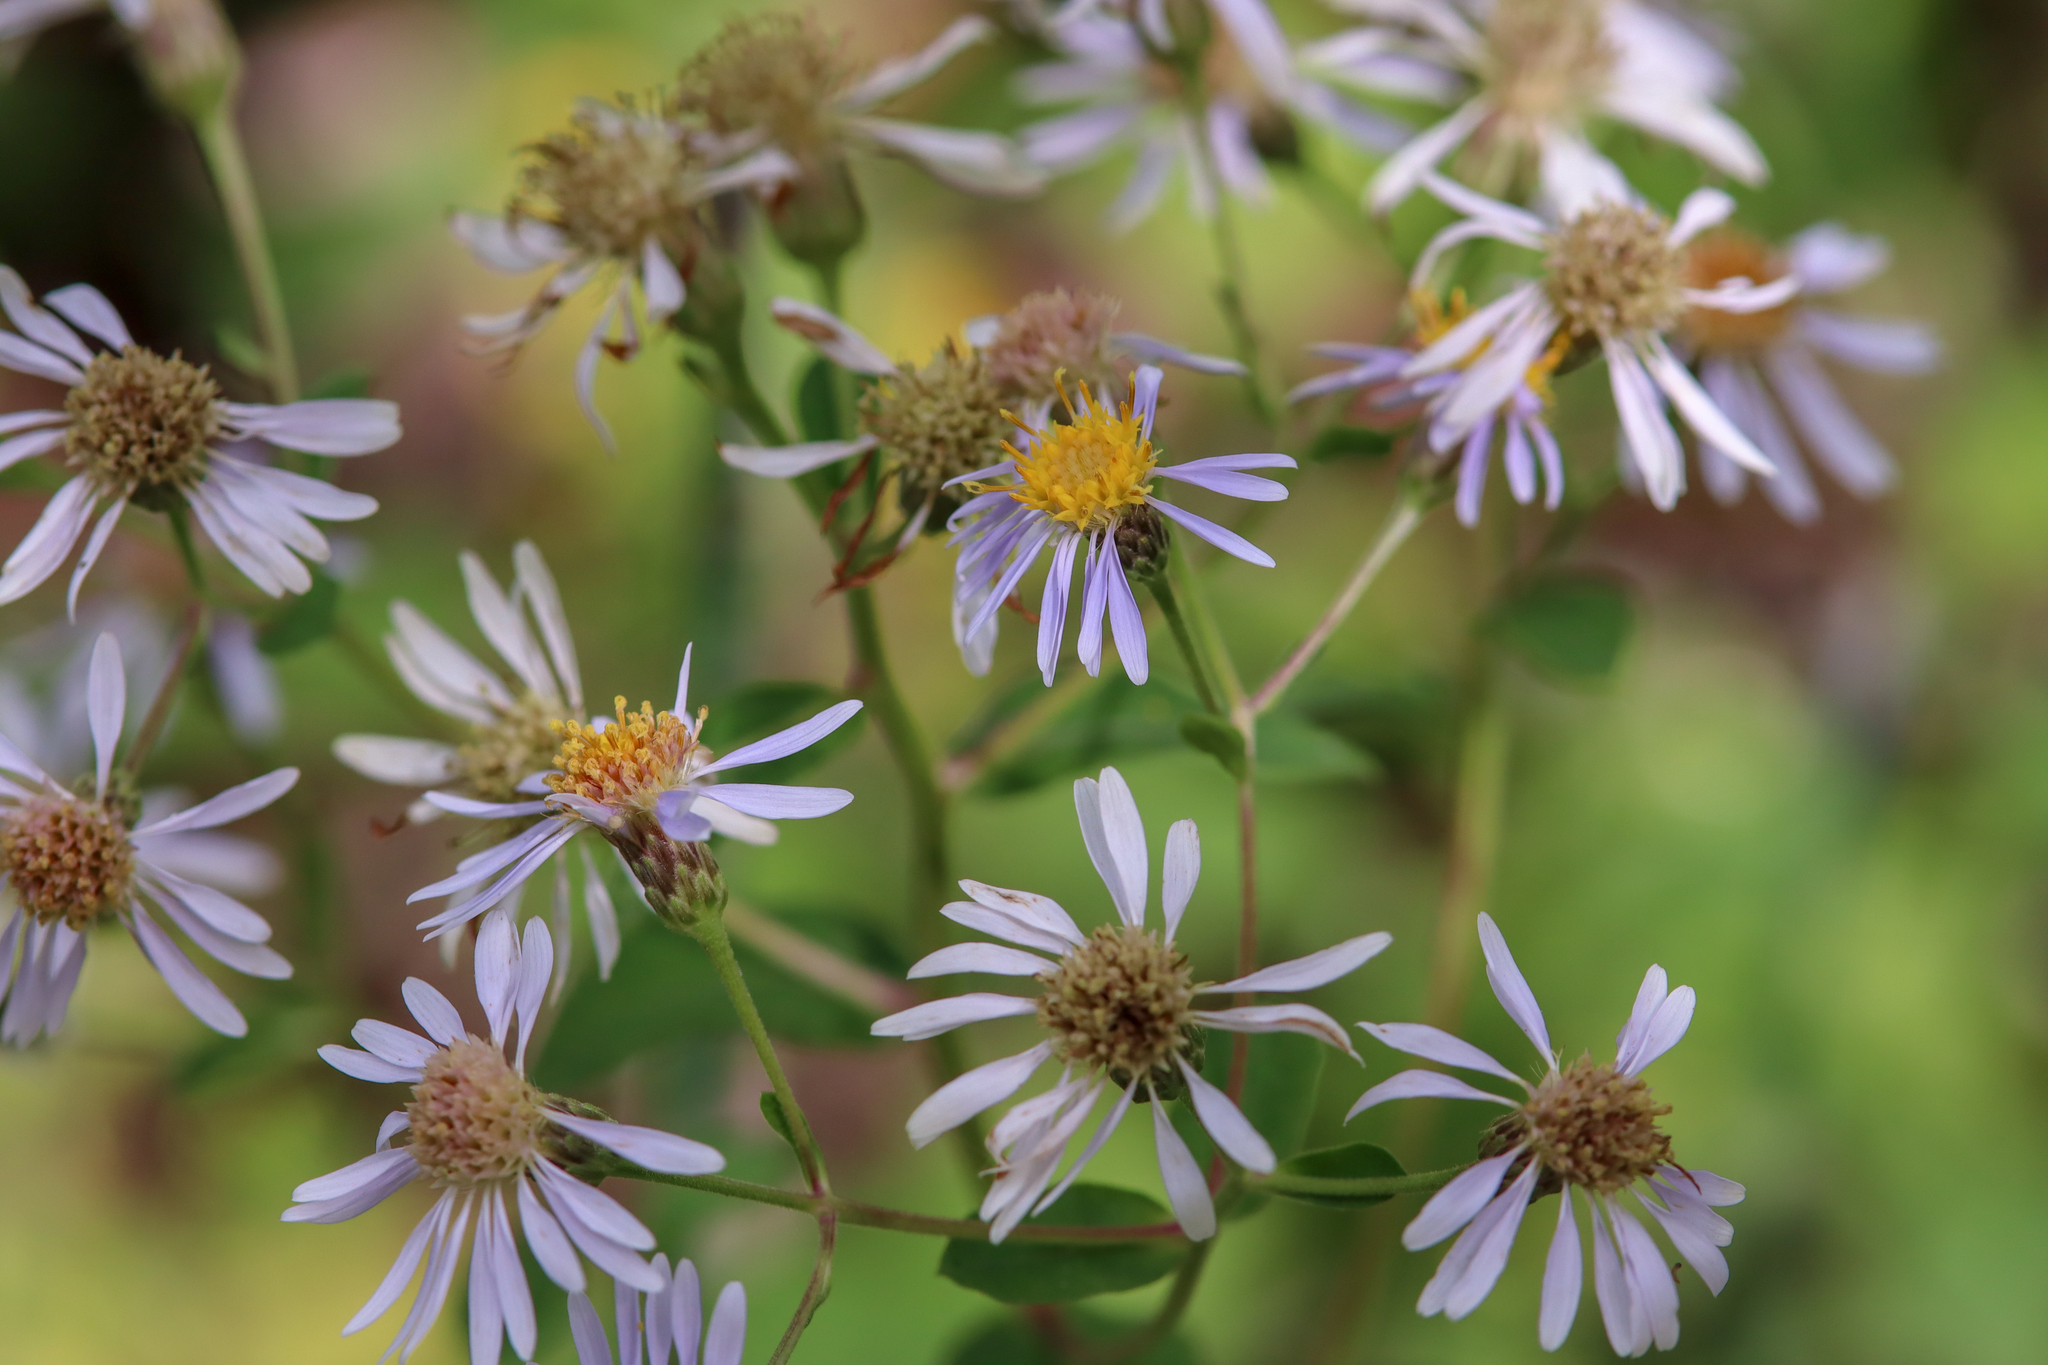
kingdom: Plantae
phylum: Tracheophyta
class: Magnoliopsida
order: Asterales
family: Asteraceae
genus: Eurybia
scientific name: Eurybia macrophylla
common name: Big-leaved aster
